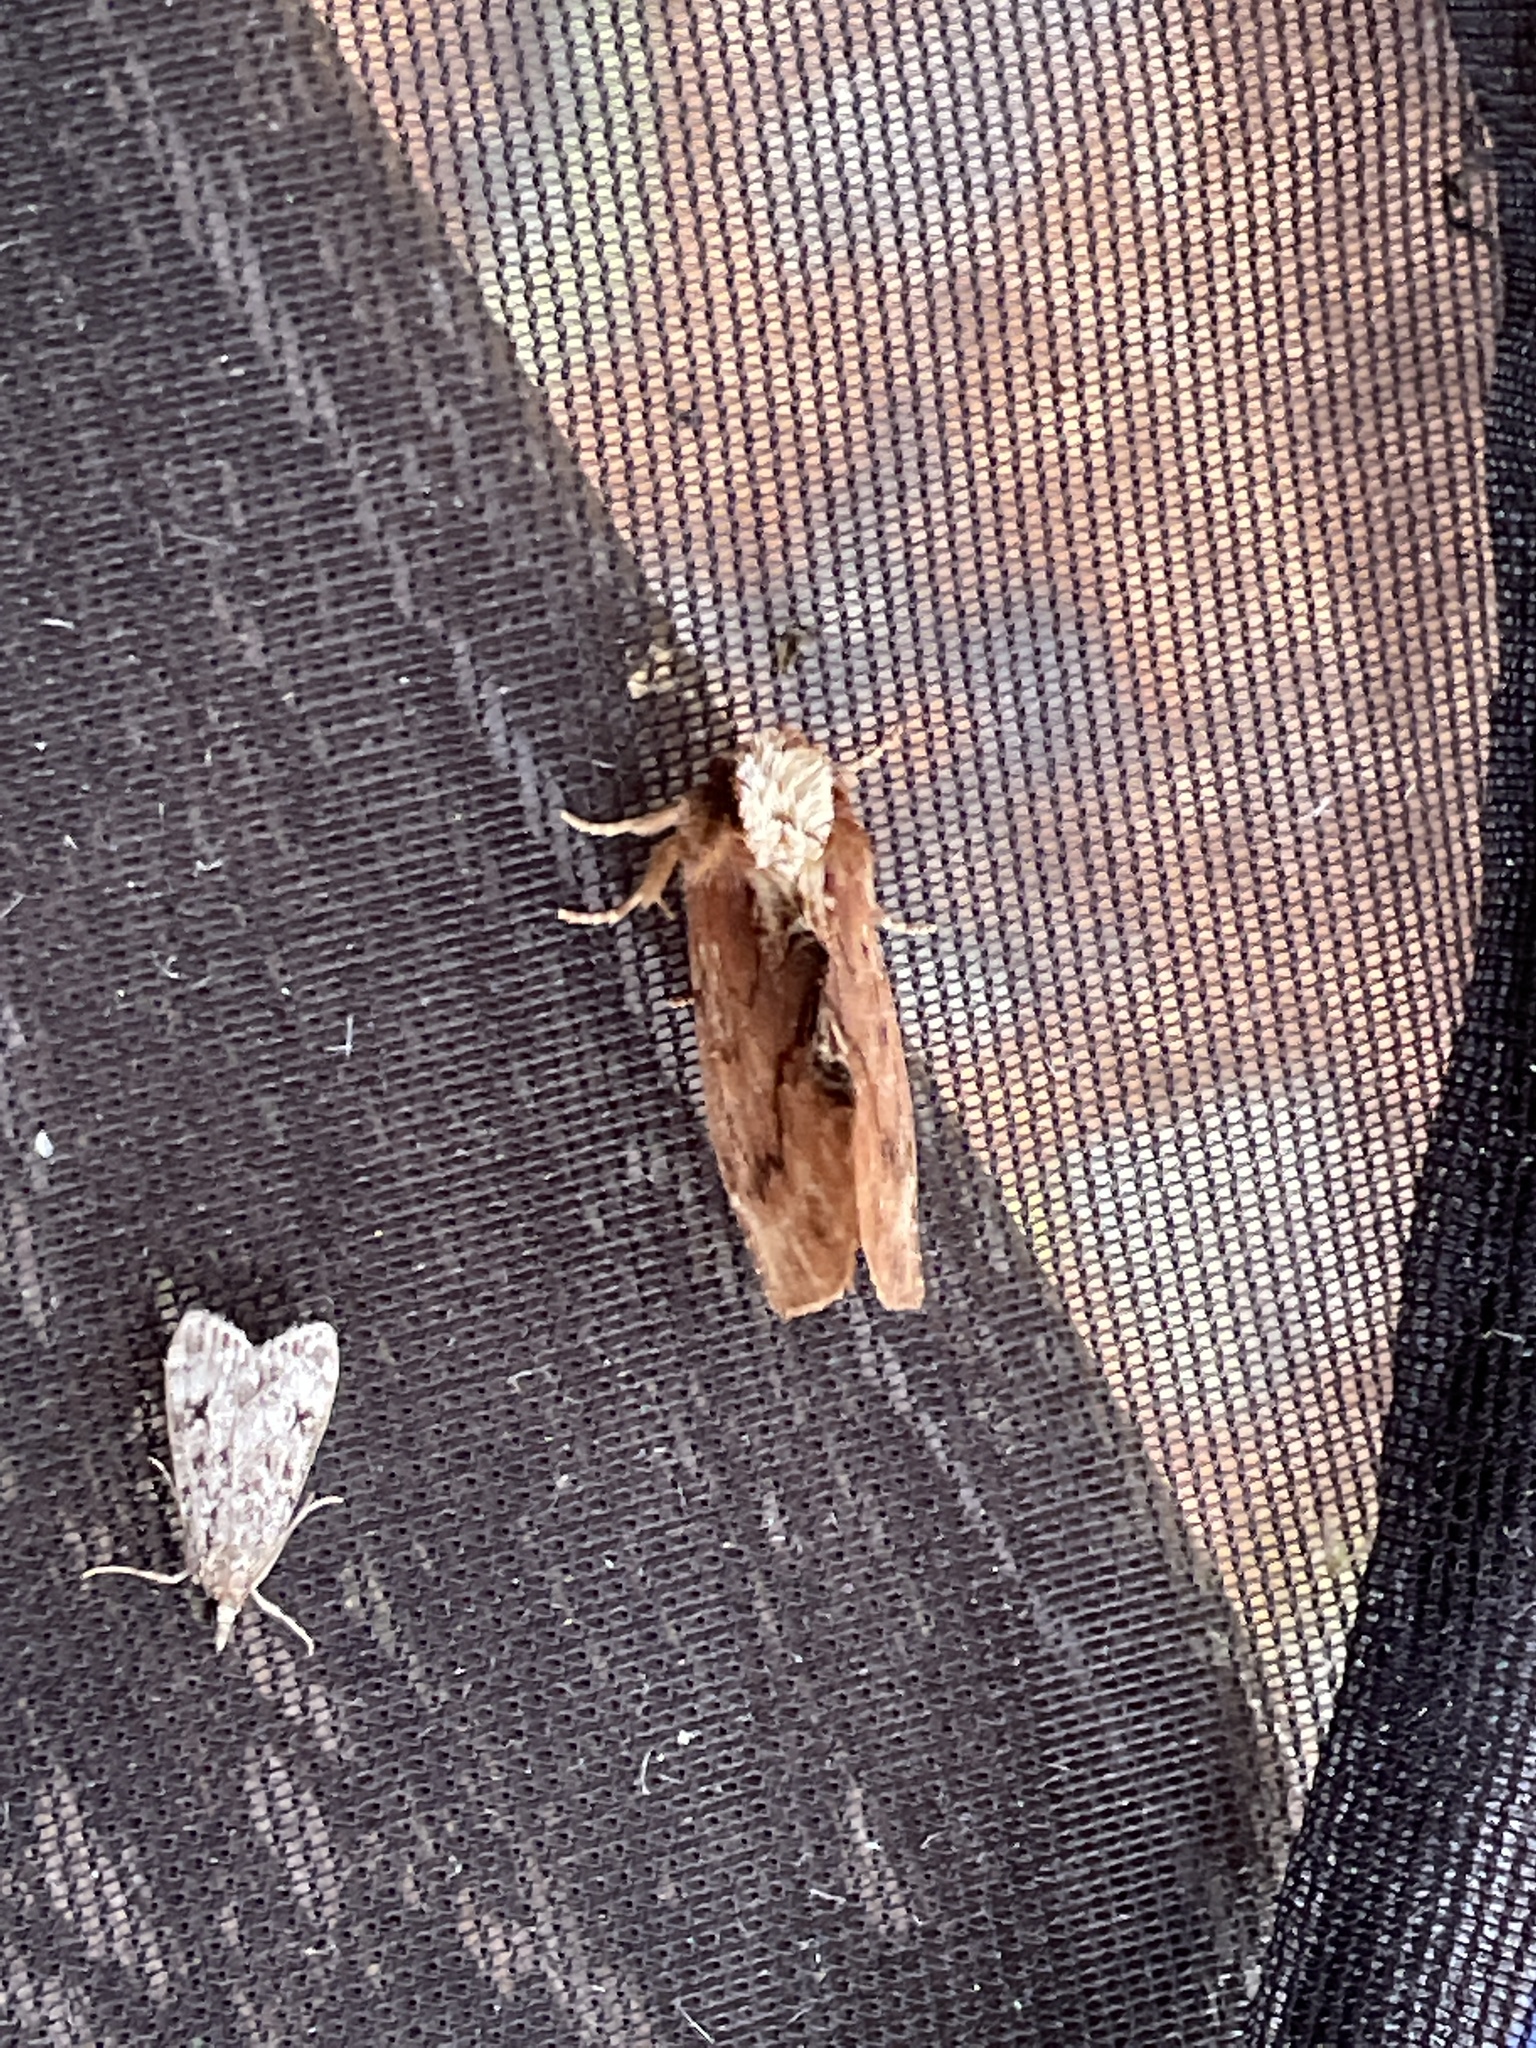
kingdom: Animalia
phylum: Arthropoda
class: Insecta
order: Lepidoptera
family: Notodontidae
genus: Ptilodon
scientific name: Ptilodon capucina
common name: Coxcomb prominent
